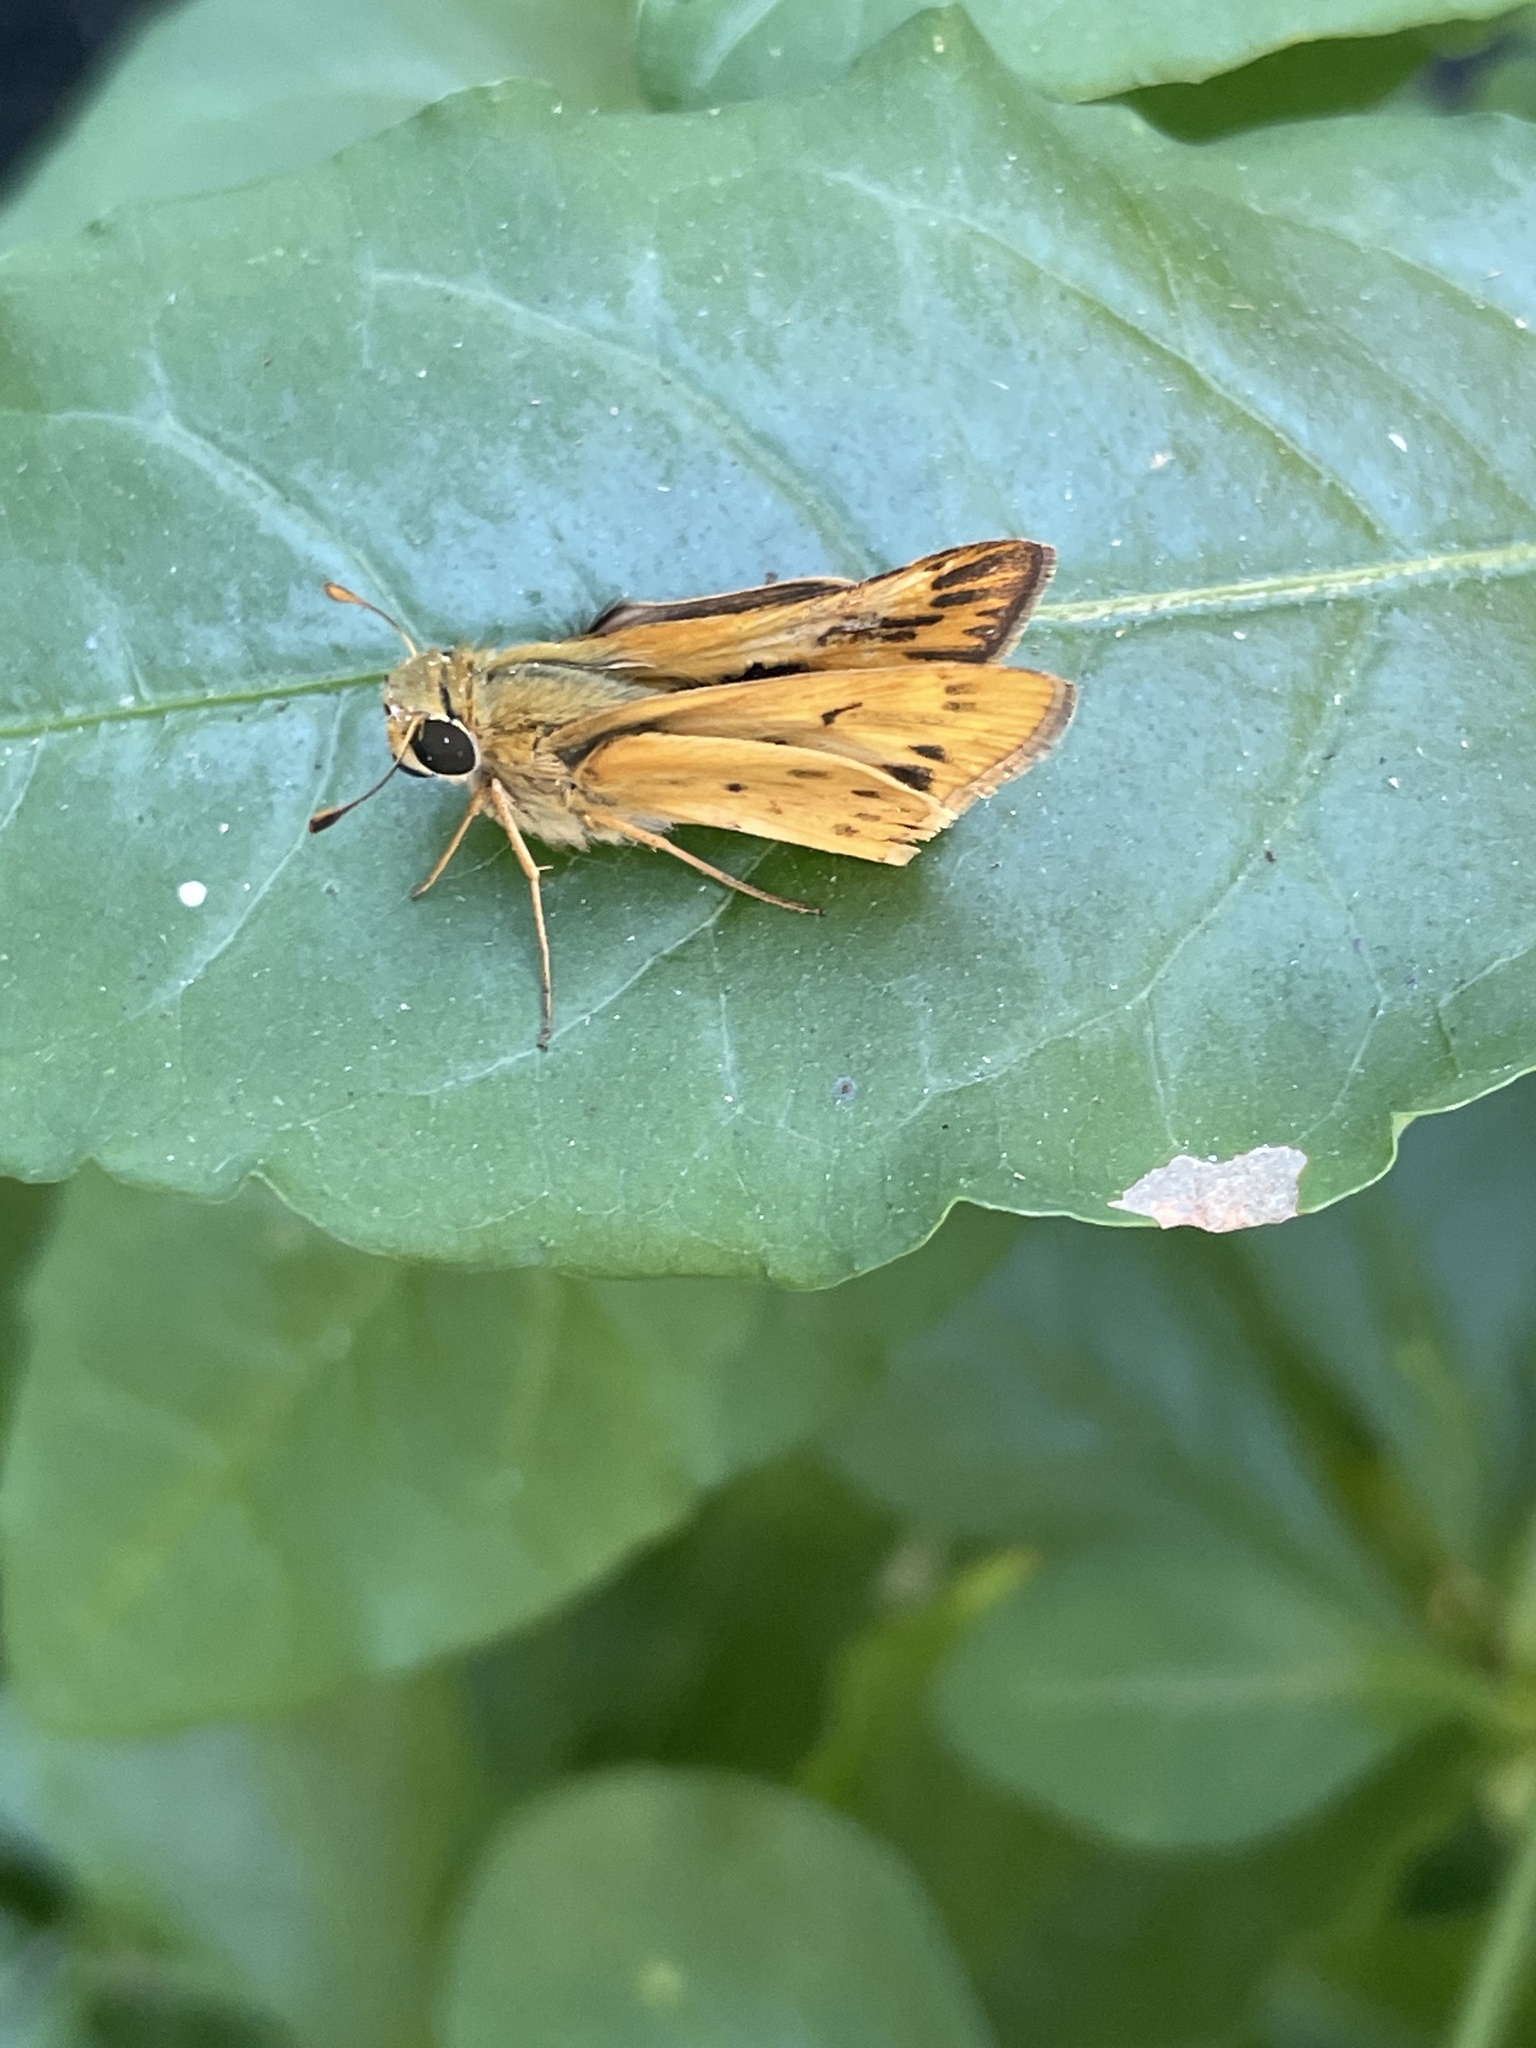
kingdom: Animalia
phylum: Arthropoda
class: Insecta
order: Lepidoptera
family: Hesperiidae
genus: Hylephila
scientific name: Hylephila phyleus
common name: Fiery skipper
